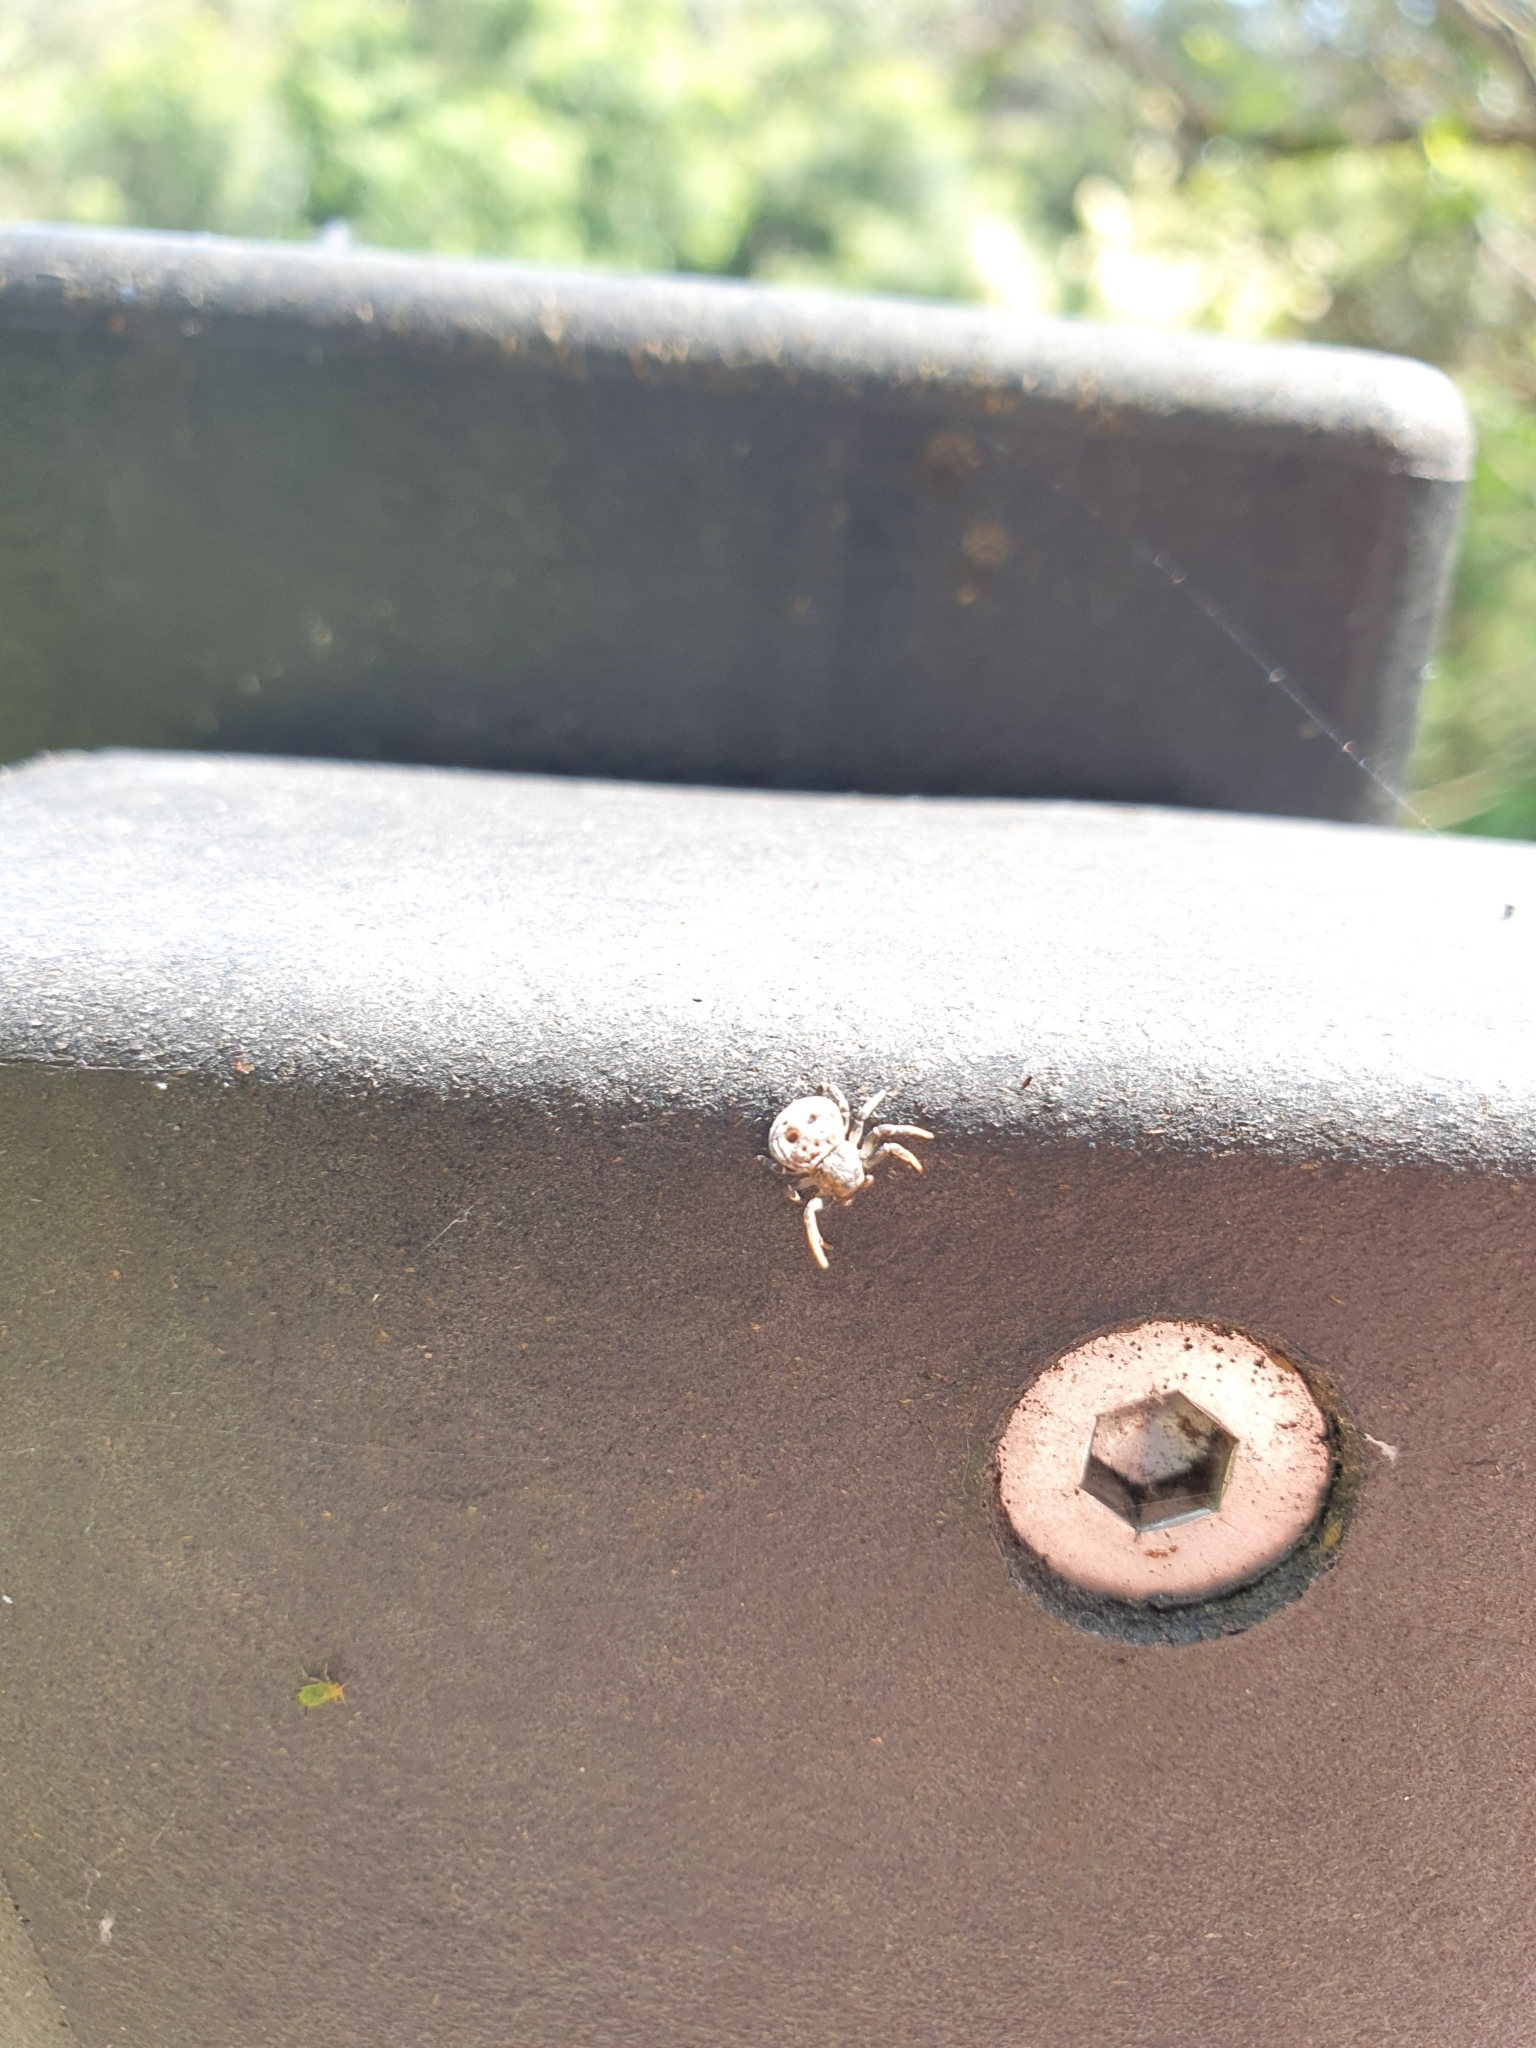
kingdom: Animalia
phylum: Arthropoda
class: Arachnida
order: Araneae
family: Thomisidae
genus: Cymbacha
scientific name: Cymbacha ocellata
